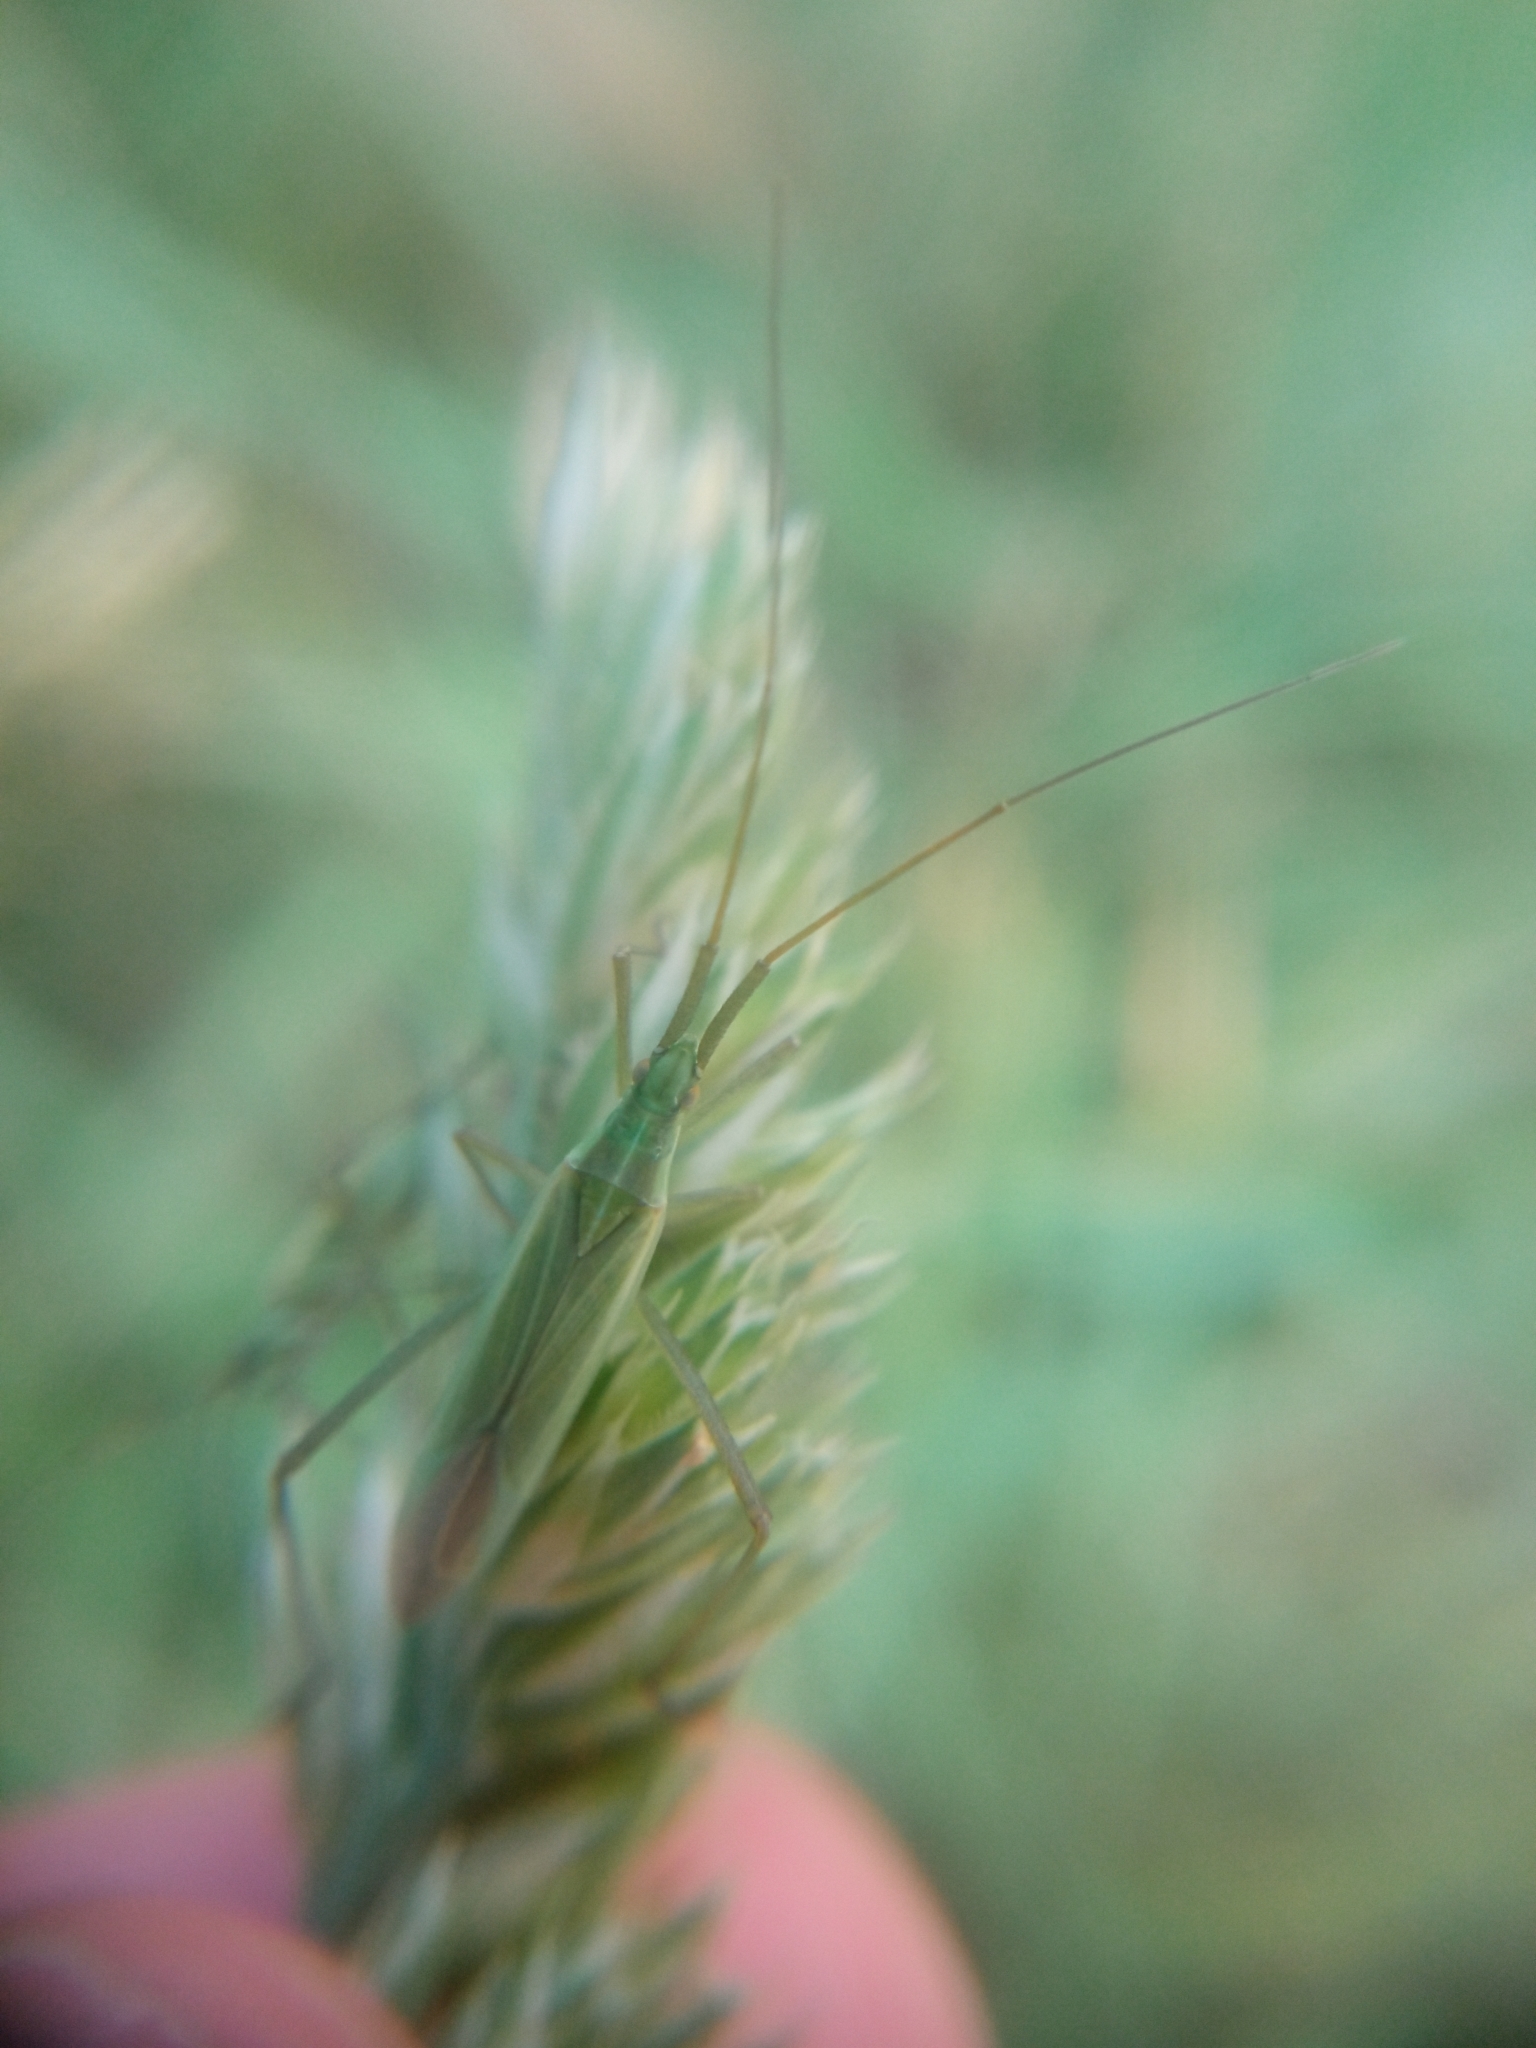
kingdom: Animalia
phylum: Arthropoda
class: Insecta
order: Hemiptera
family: Miridae
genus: Megaloceroea
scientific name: Megaloceroea recticornis
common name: Plant bug
